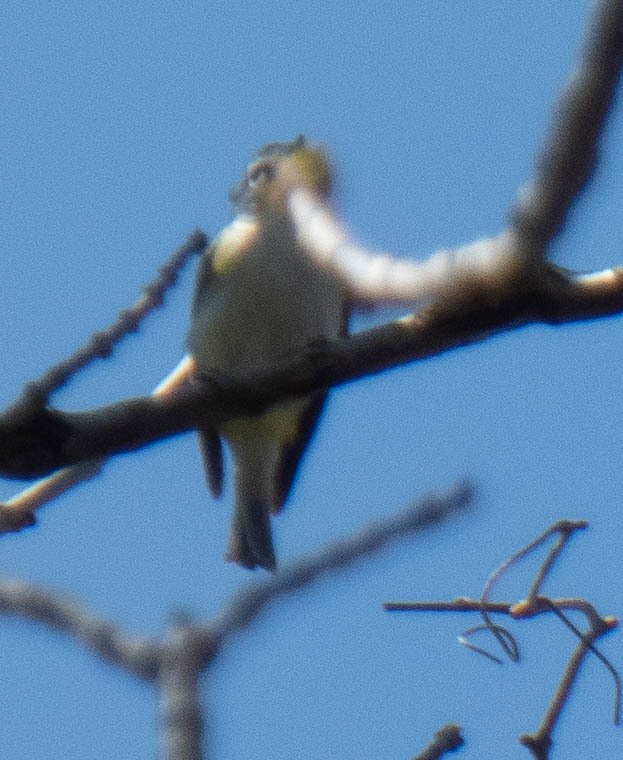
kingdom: Animalia
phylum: Chordata
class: Aves
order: Passeriformes
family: Vireonidae
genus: Vireo
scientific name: Vireo solitarius
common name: Blue-headed vireo
